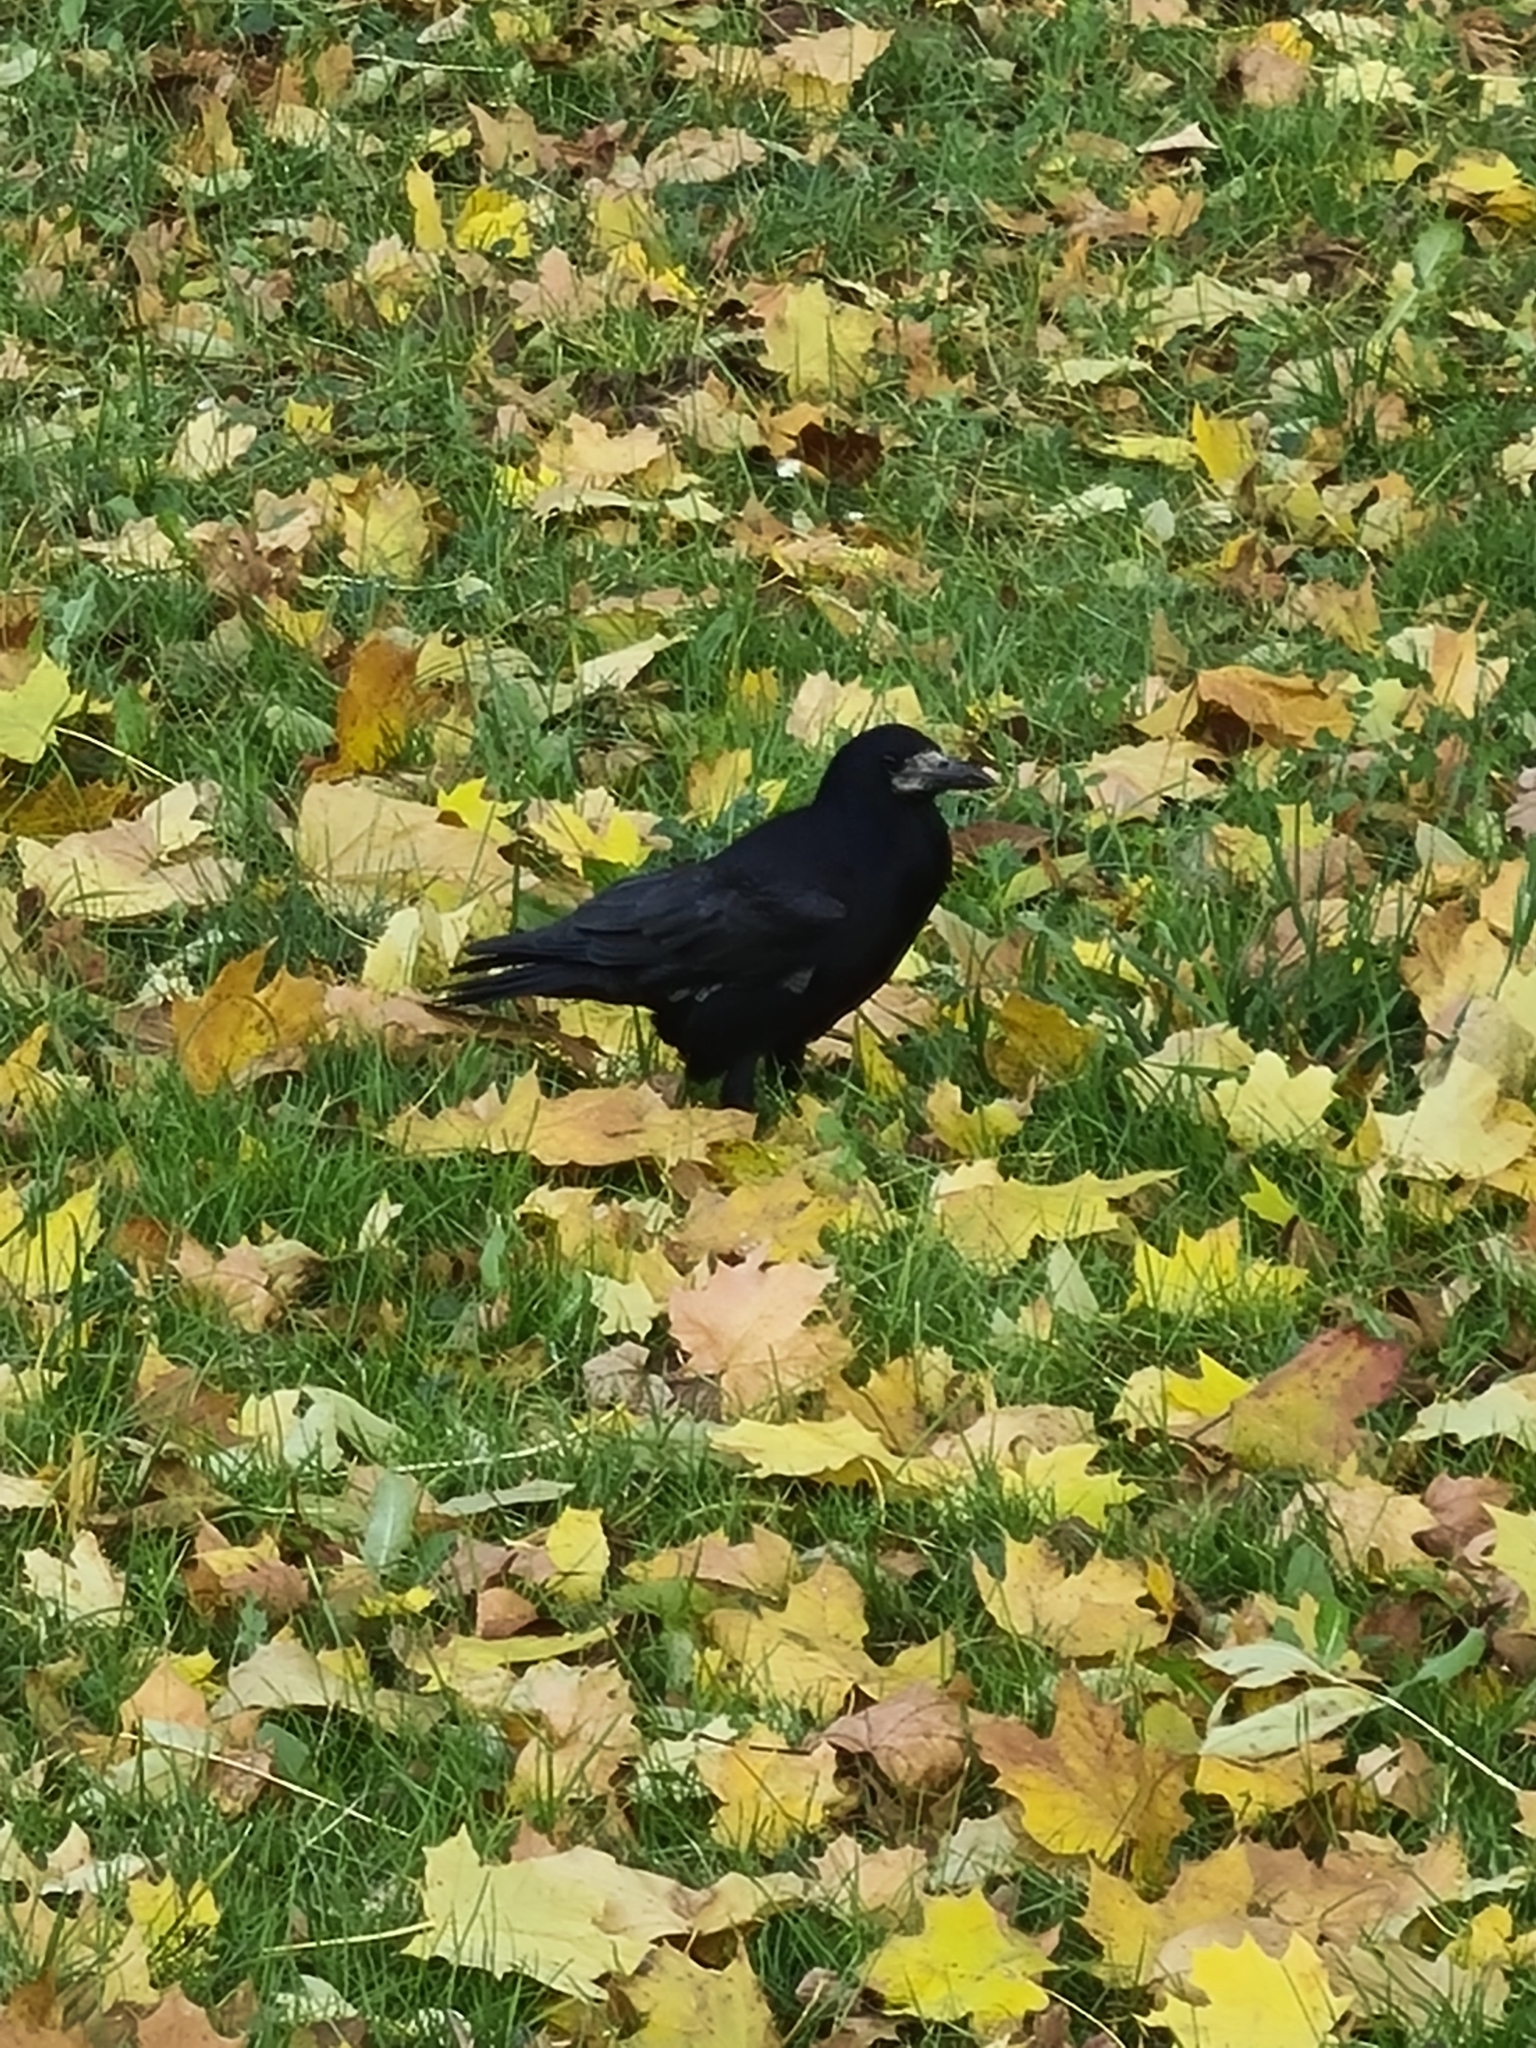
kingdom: Animalia
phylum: Chordata
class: Aves
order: Passeriformes
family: Corvidae
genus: Corvus
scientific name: Corvus frugilegus
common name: Rook
